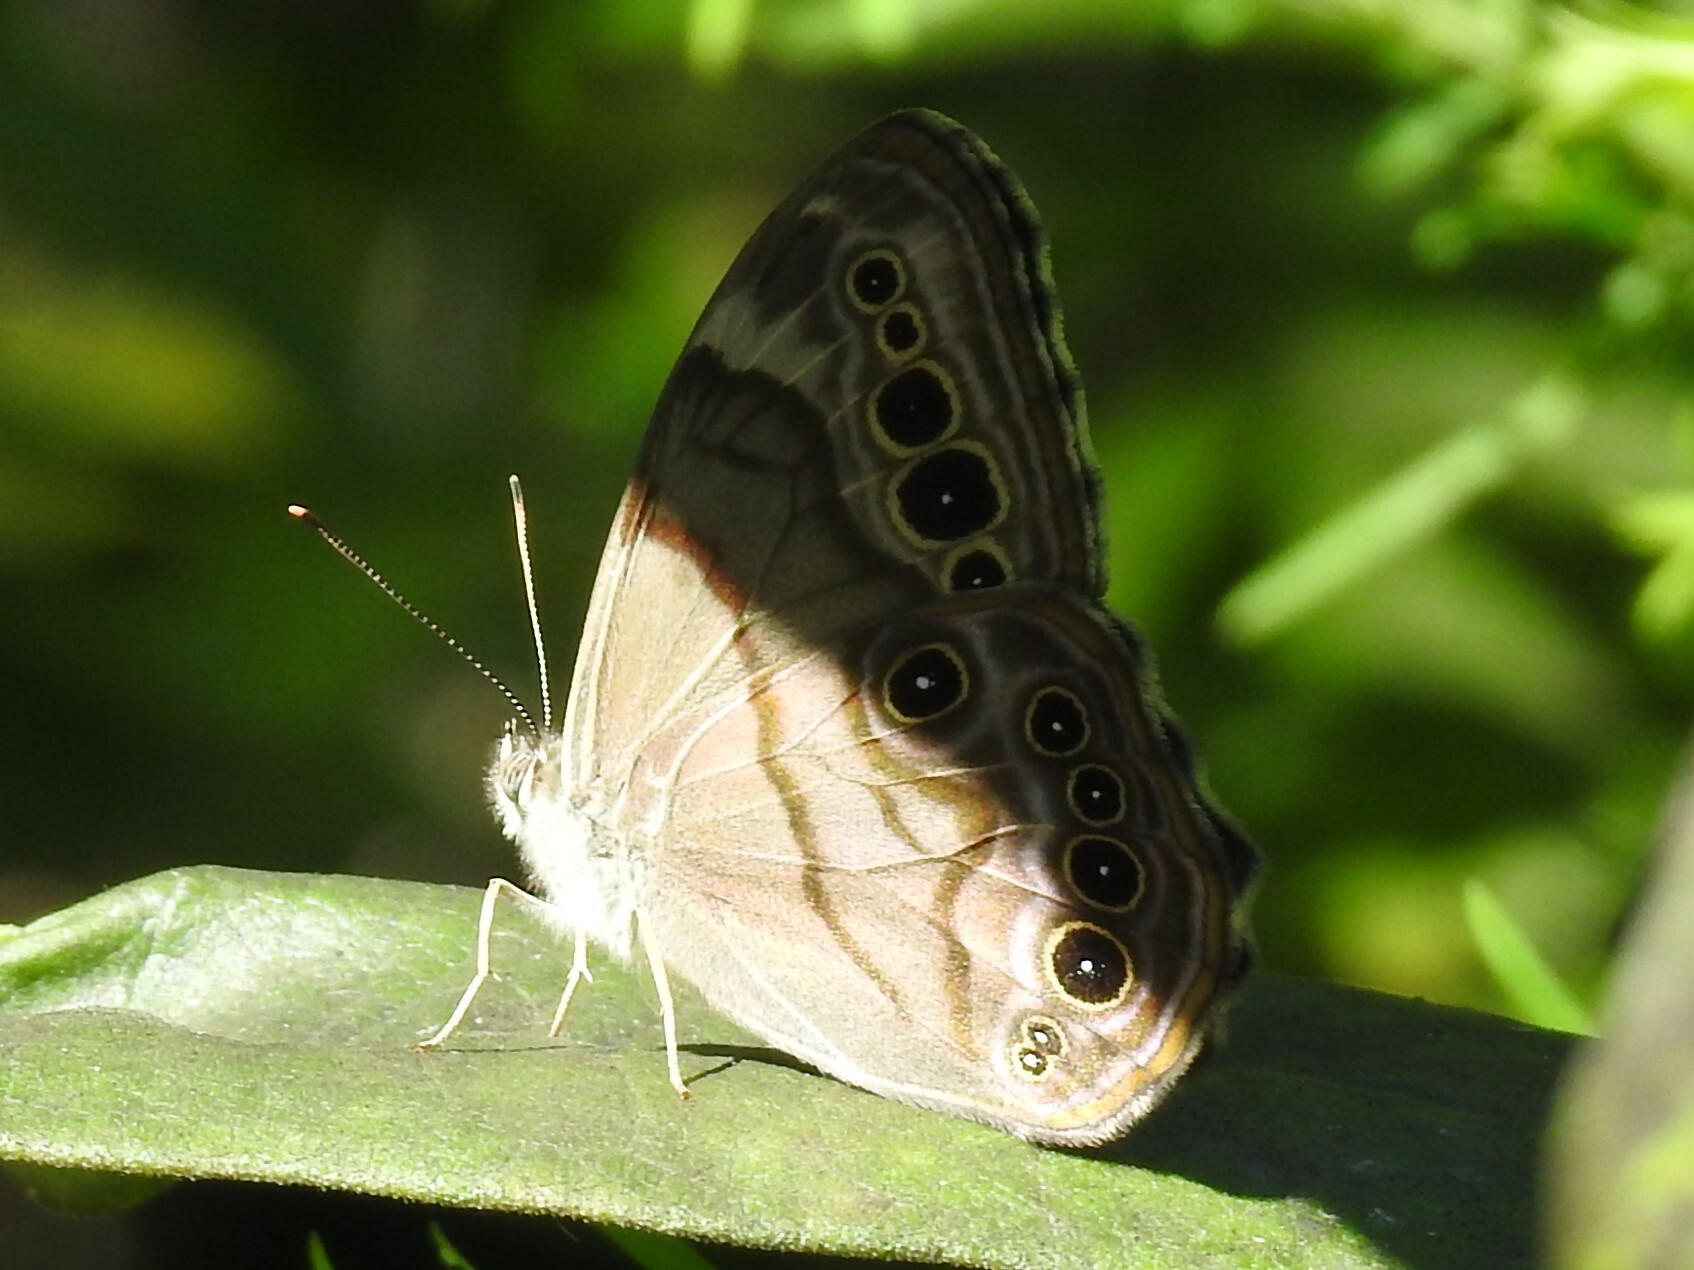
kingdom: Animalia
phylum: Arthropoda
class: Insecta
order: Lepidoptera
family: Nymphalidae
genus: Lethe
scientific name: Lethe anthedon
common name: Northern pearly-eye
